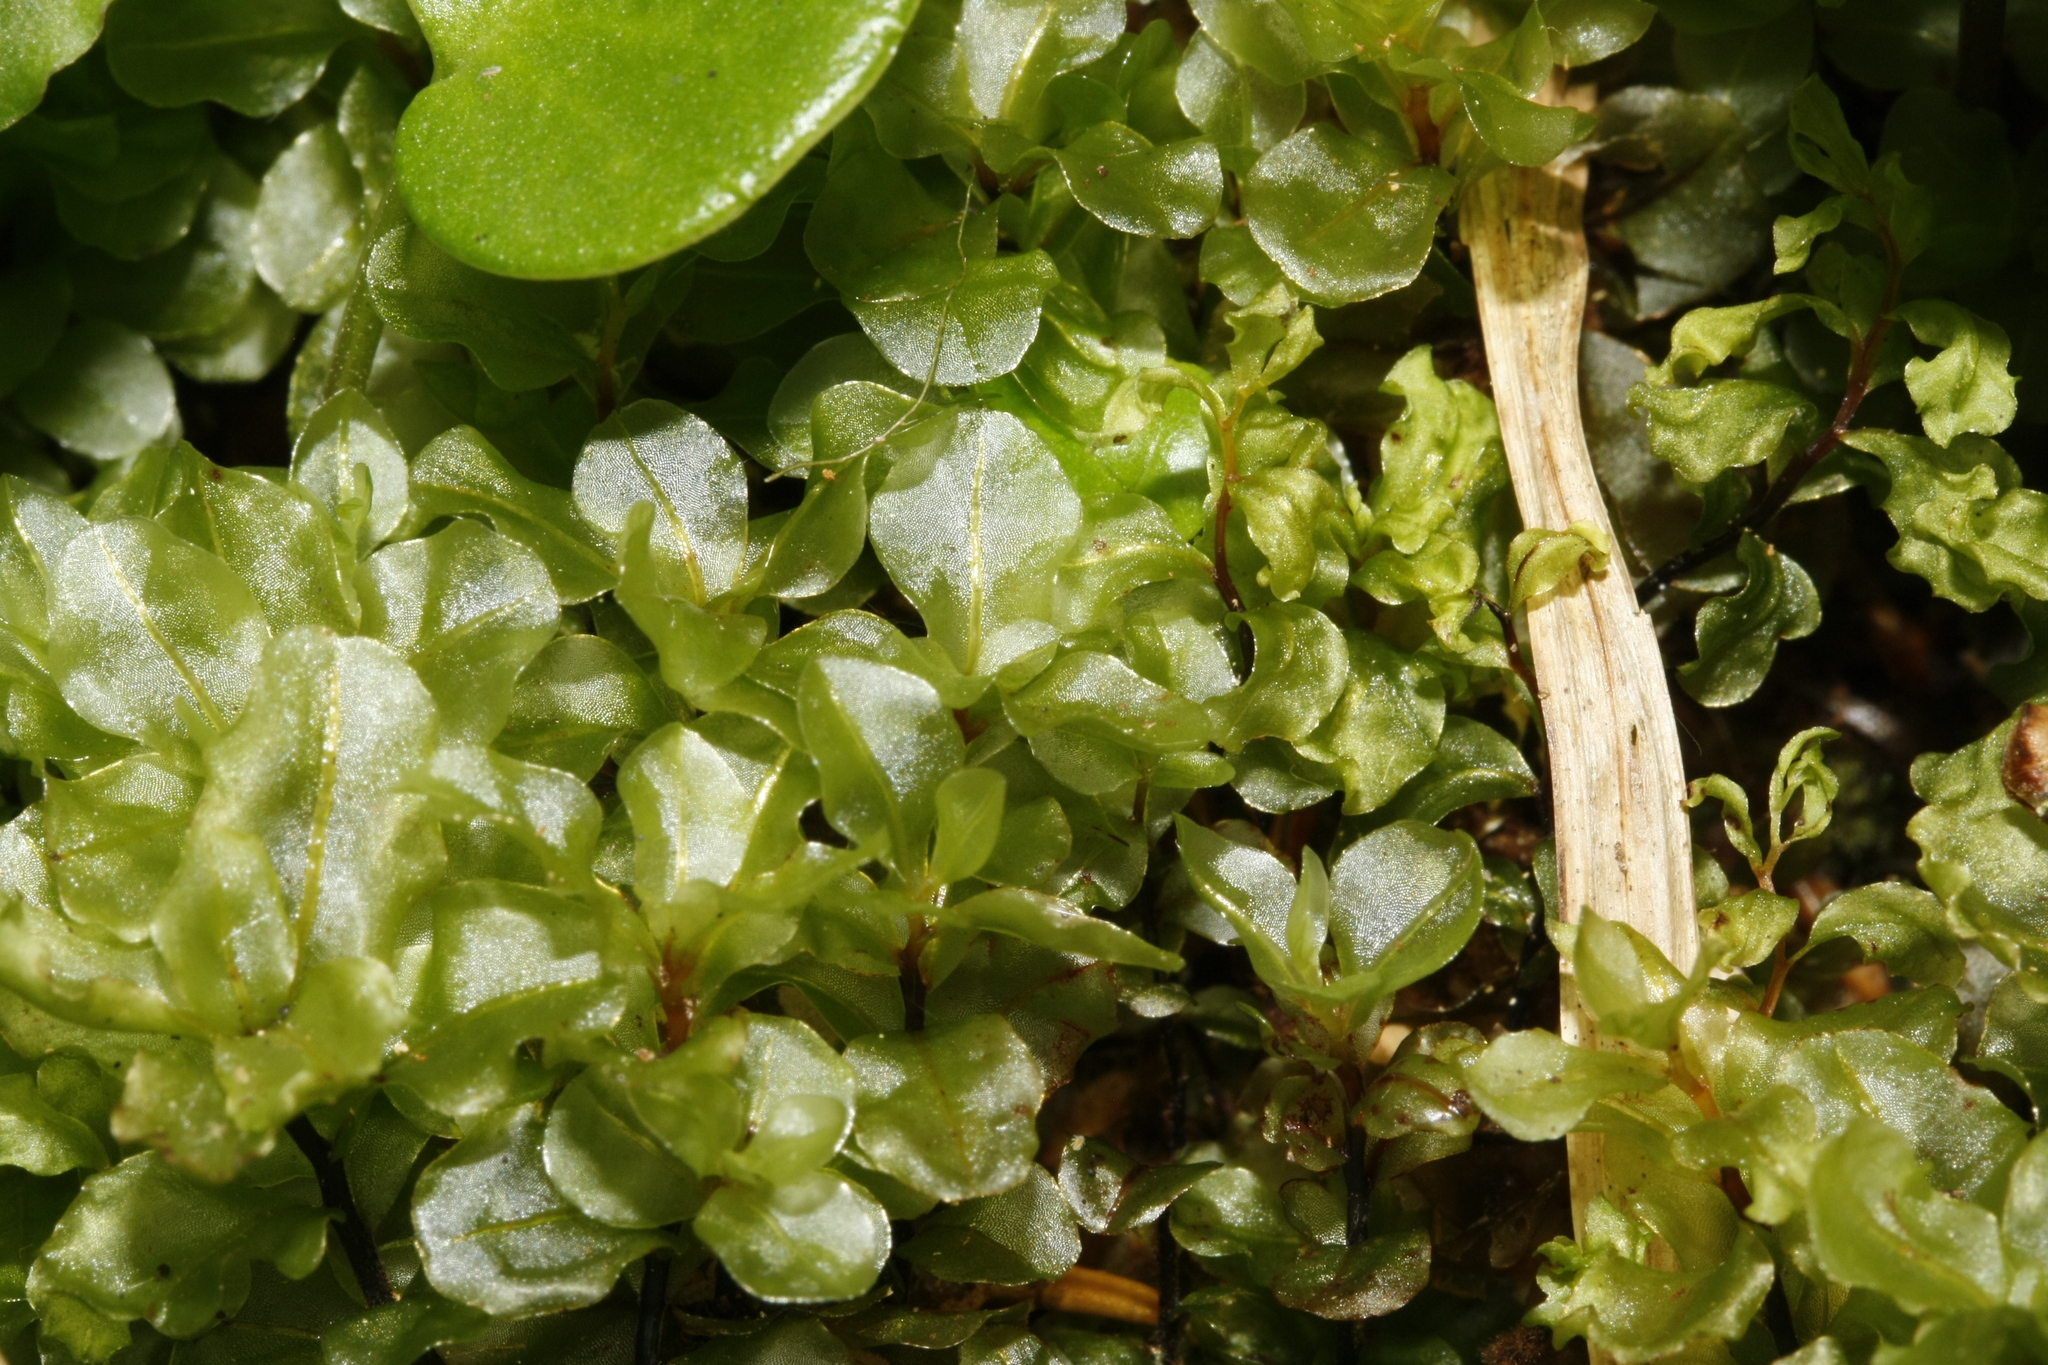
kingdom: Plantae
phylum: Bryophyta
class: Bryopsida
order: Bryales
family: Mniaceae
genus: Rhizomnium
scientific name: Rhizomnium punctatum
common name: Dotted leafy moss
